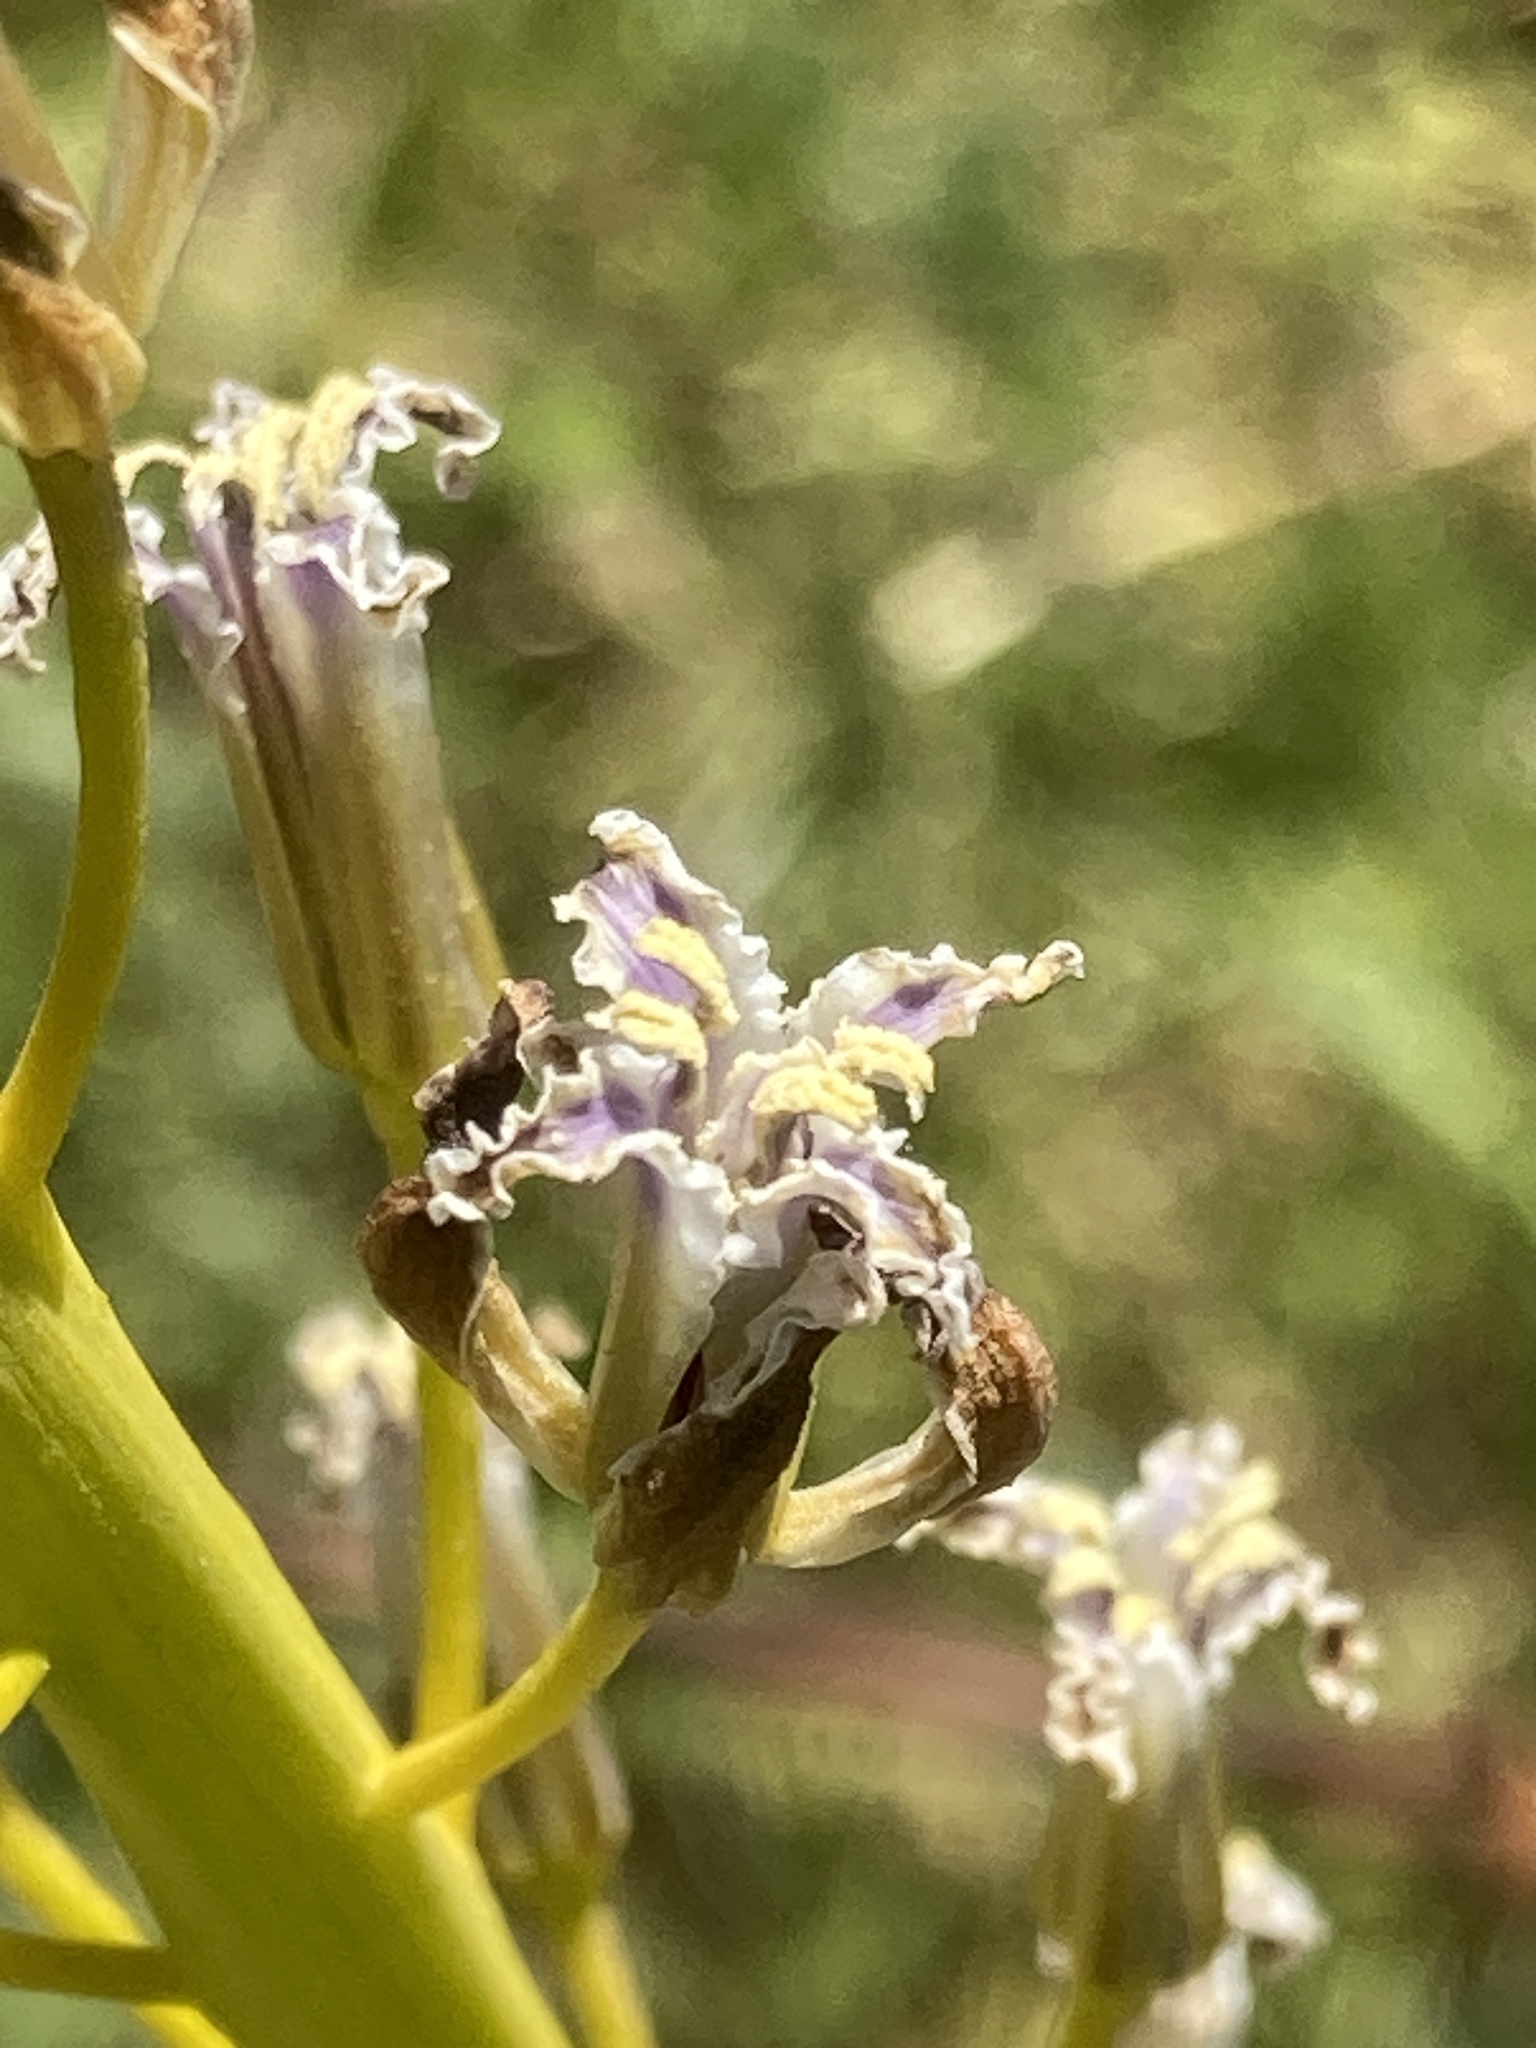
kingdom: Plantae
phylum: Tracheophyta
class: Magnoliopsida
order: Brassicales
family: Brassicaceae
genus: Streptanthus
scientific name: Streptanthus inflatus
